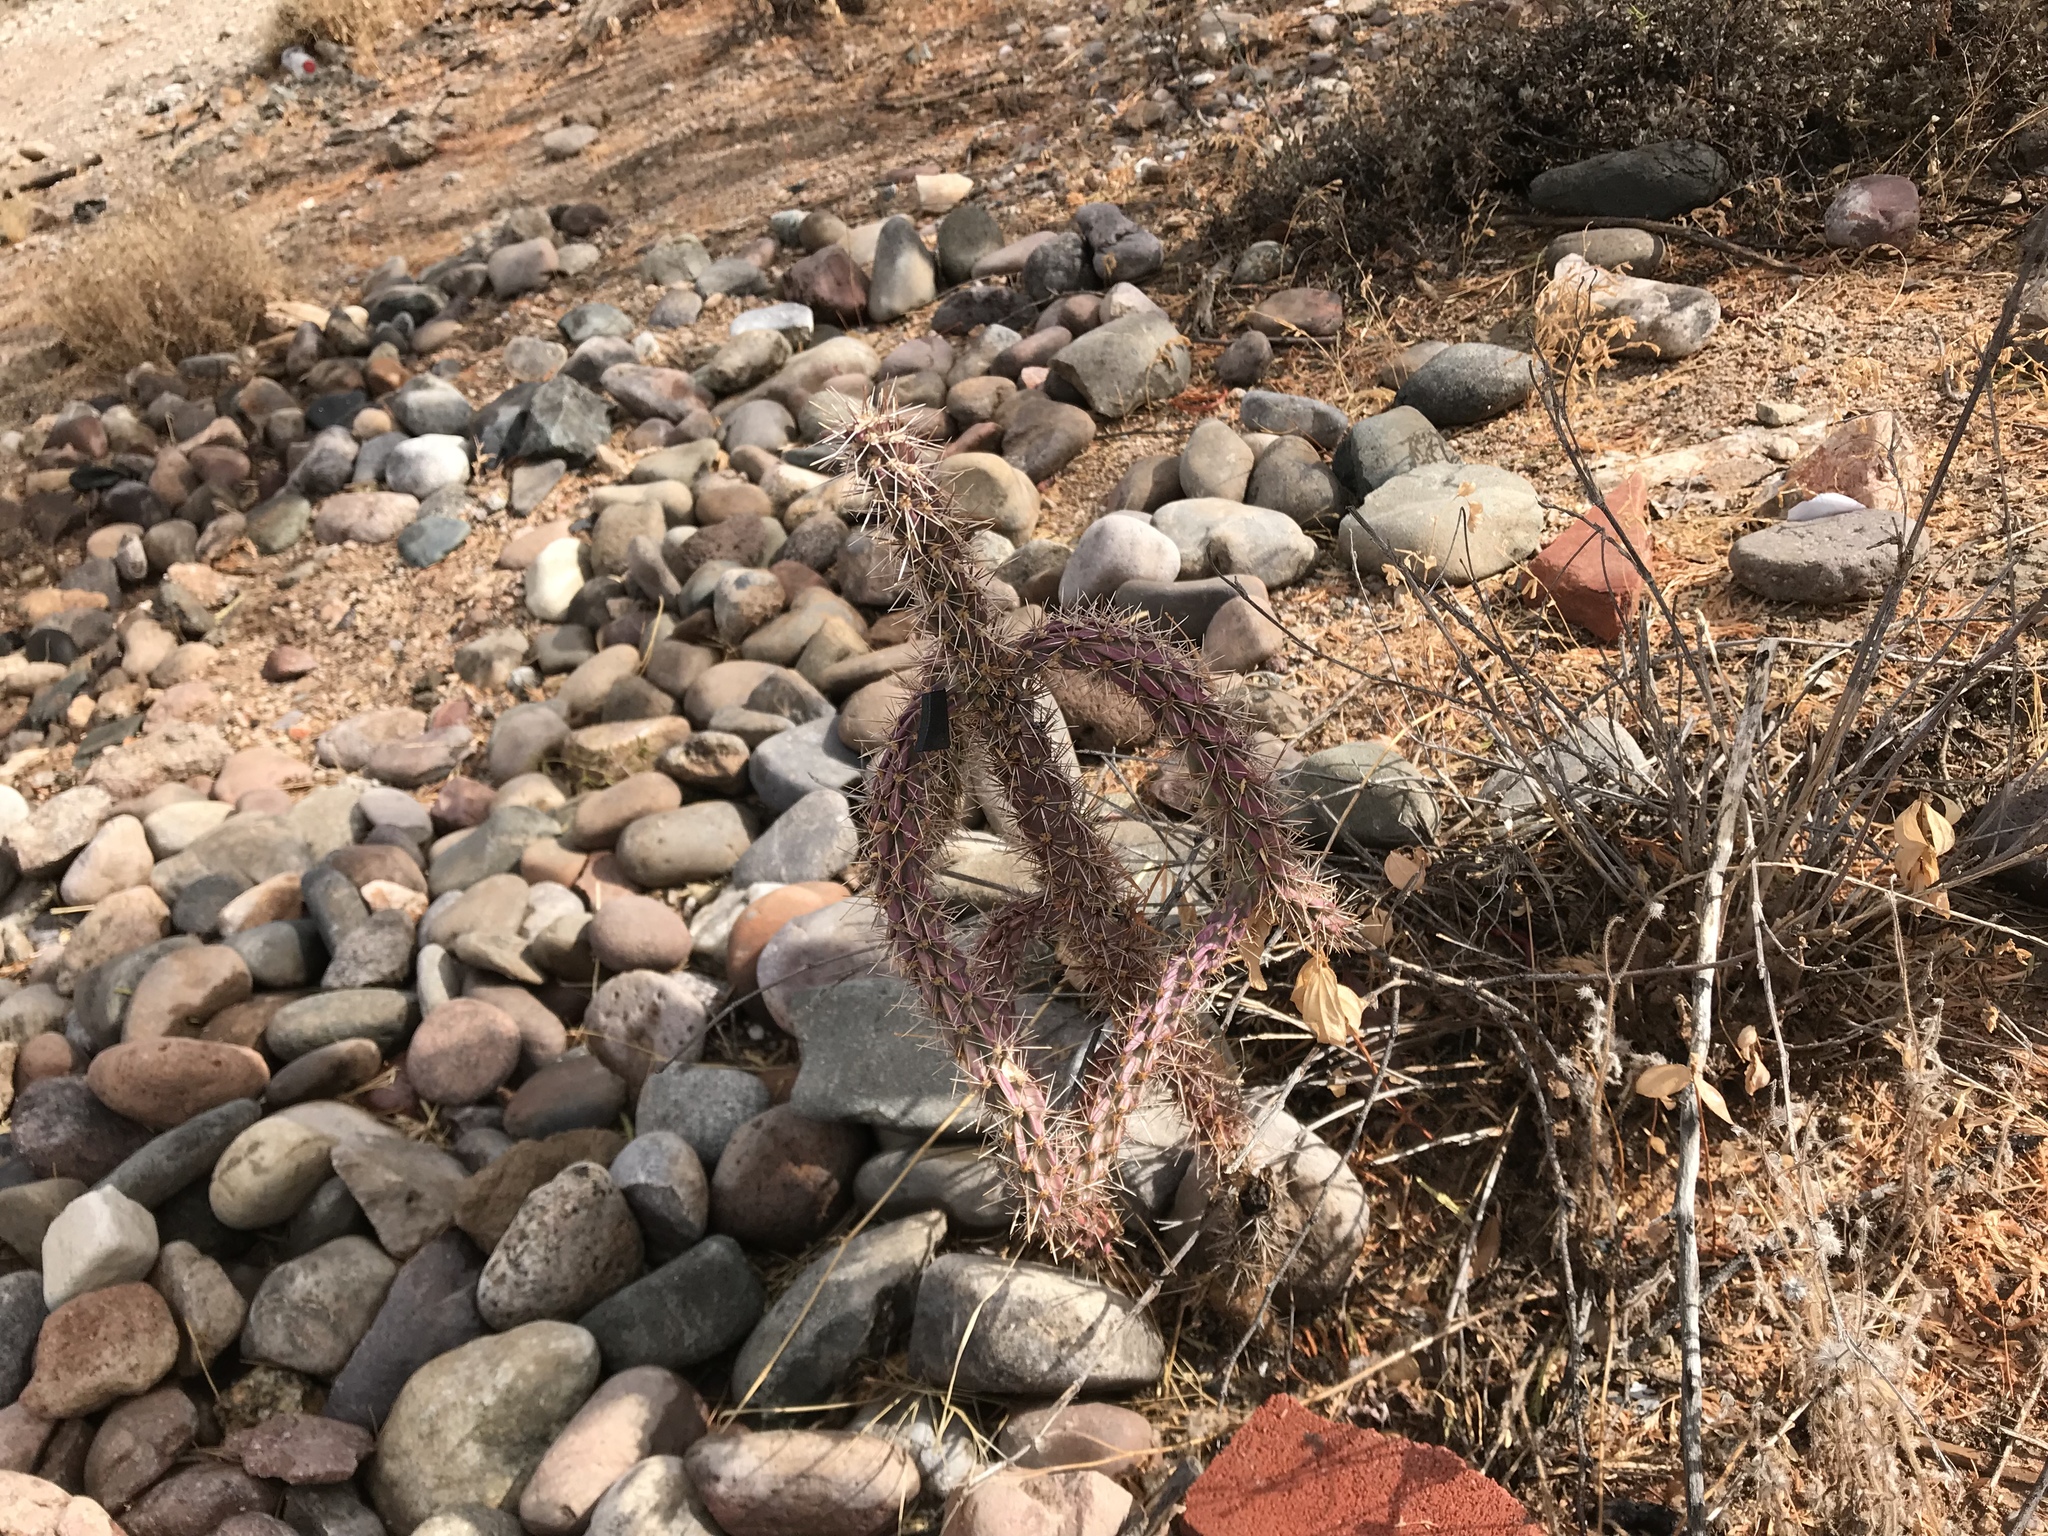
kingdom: Plantae
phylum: Tracheophyta
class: Magnoliopsida
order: Caryophyllales
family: Cactaceae
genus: Cylindropuntia
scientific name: Cylindropuntia thurberi
